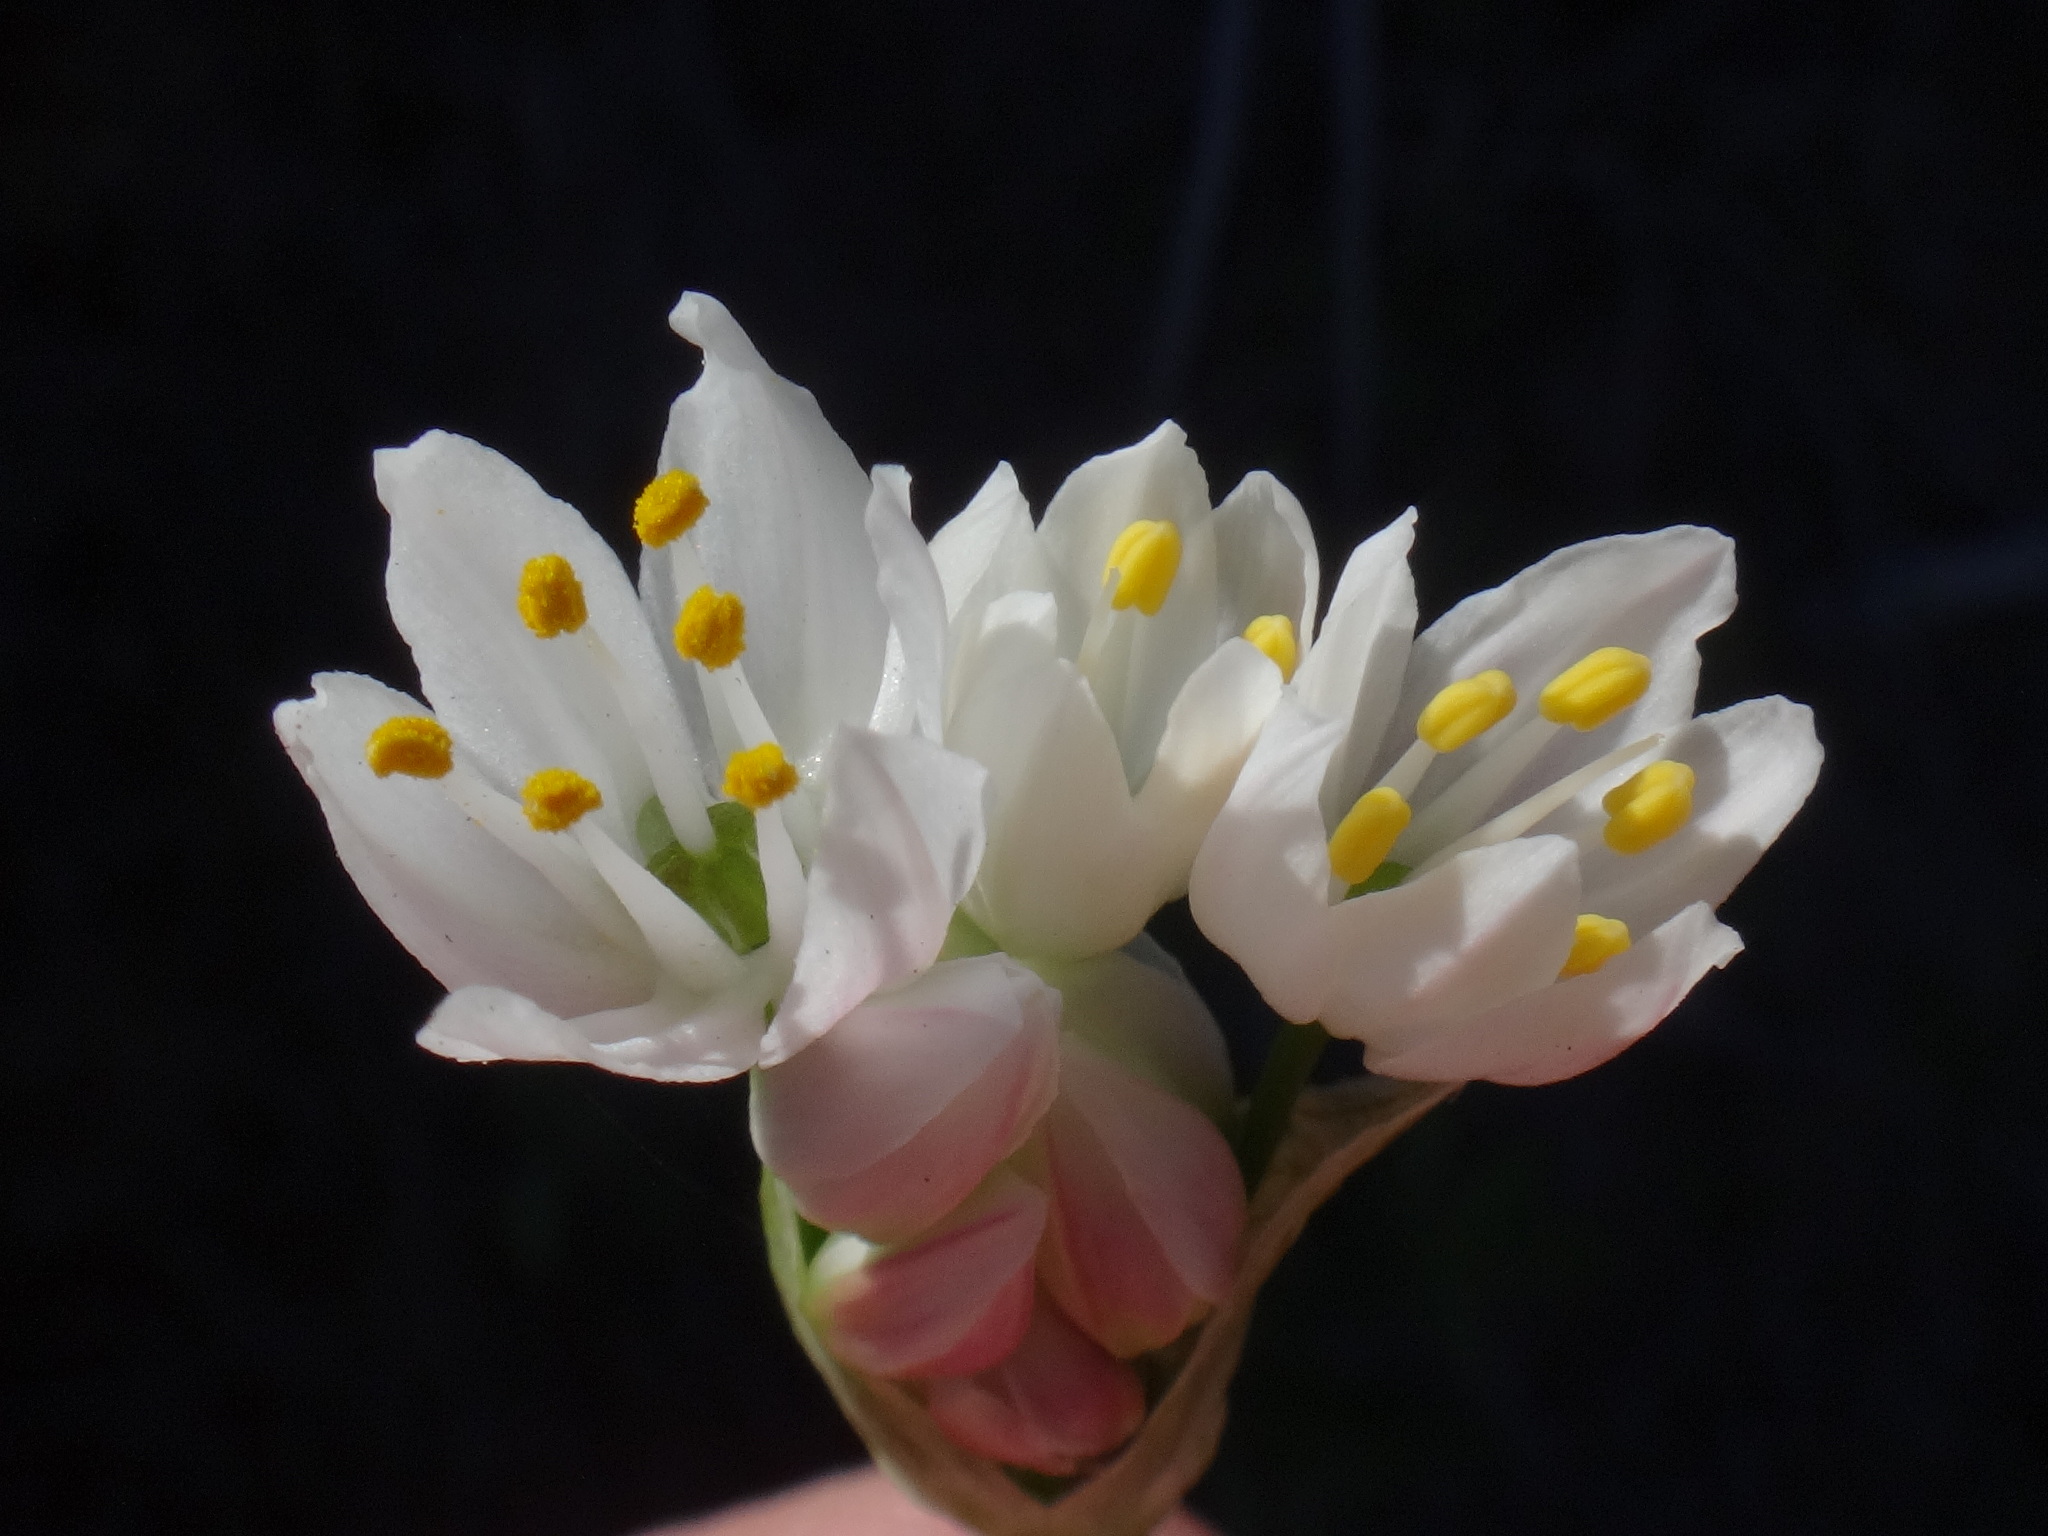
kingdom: Plantae
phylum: Tracheophyta
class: Liliopsida
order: Asparagales
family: Amaryllidaceae
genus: Allium
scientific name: Allium canariense
